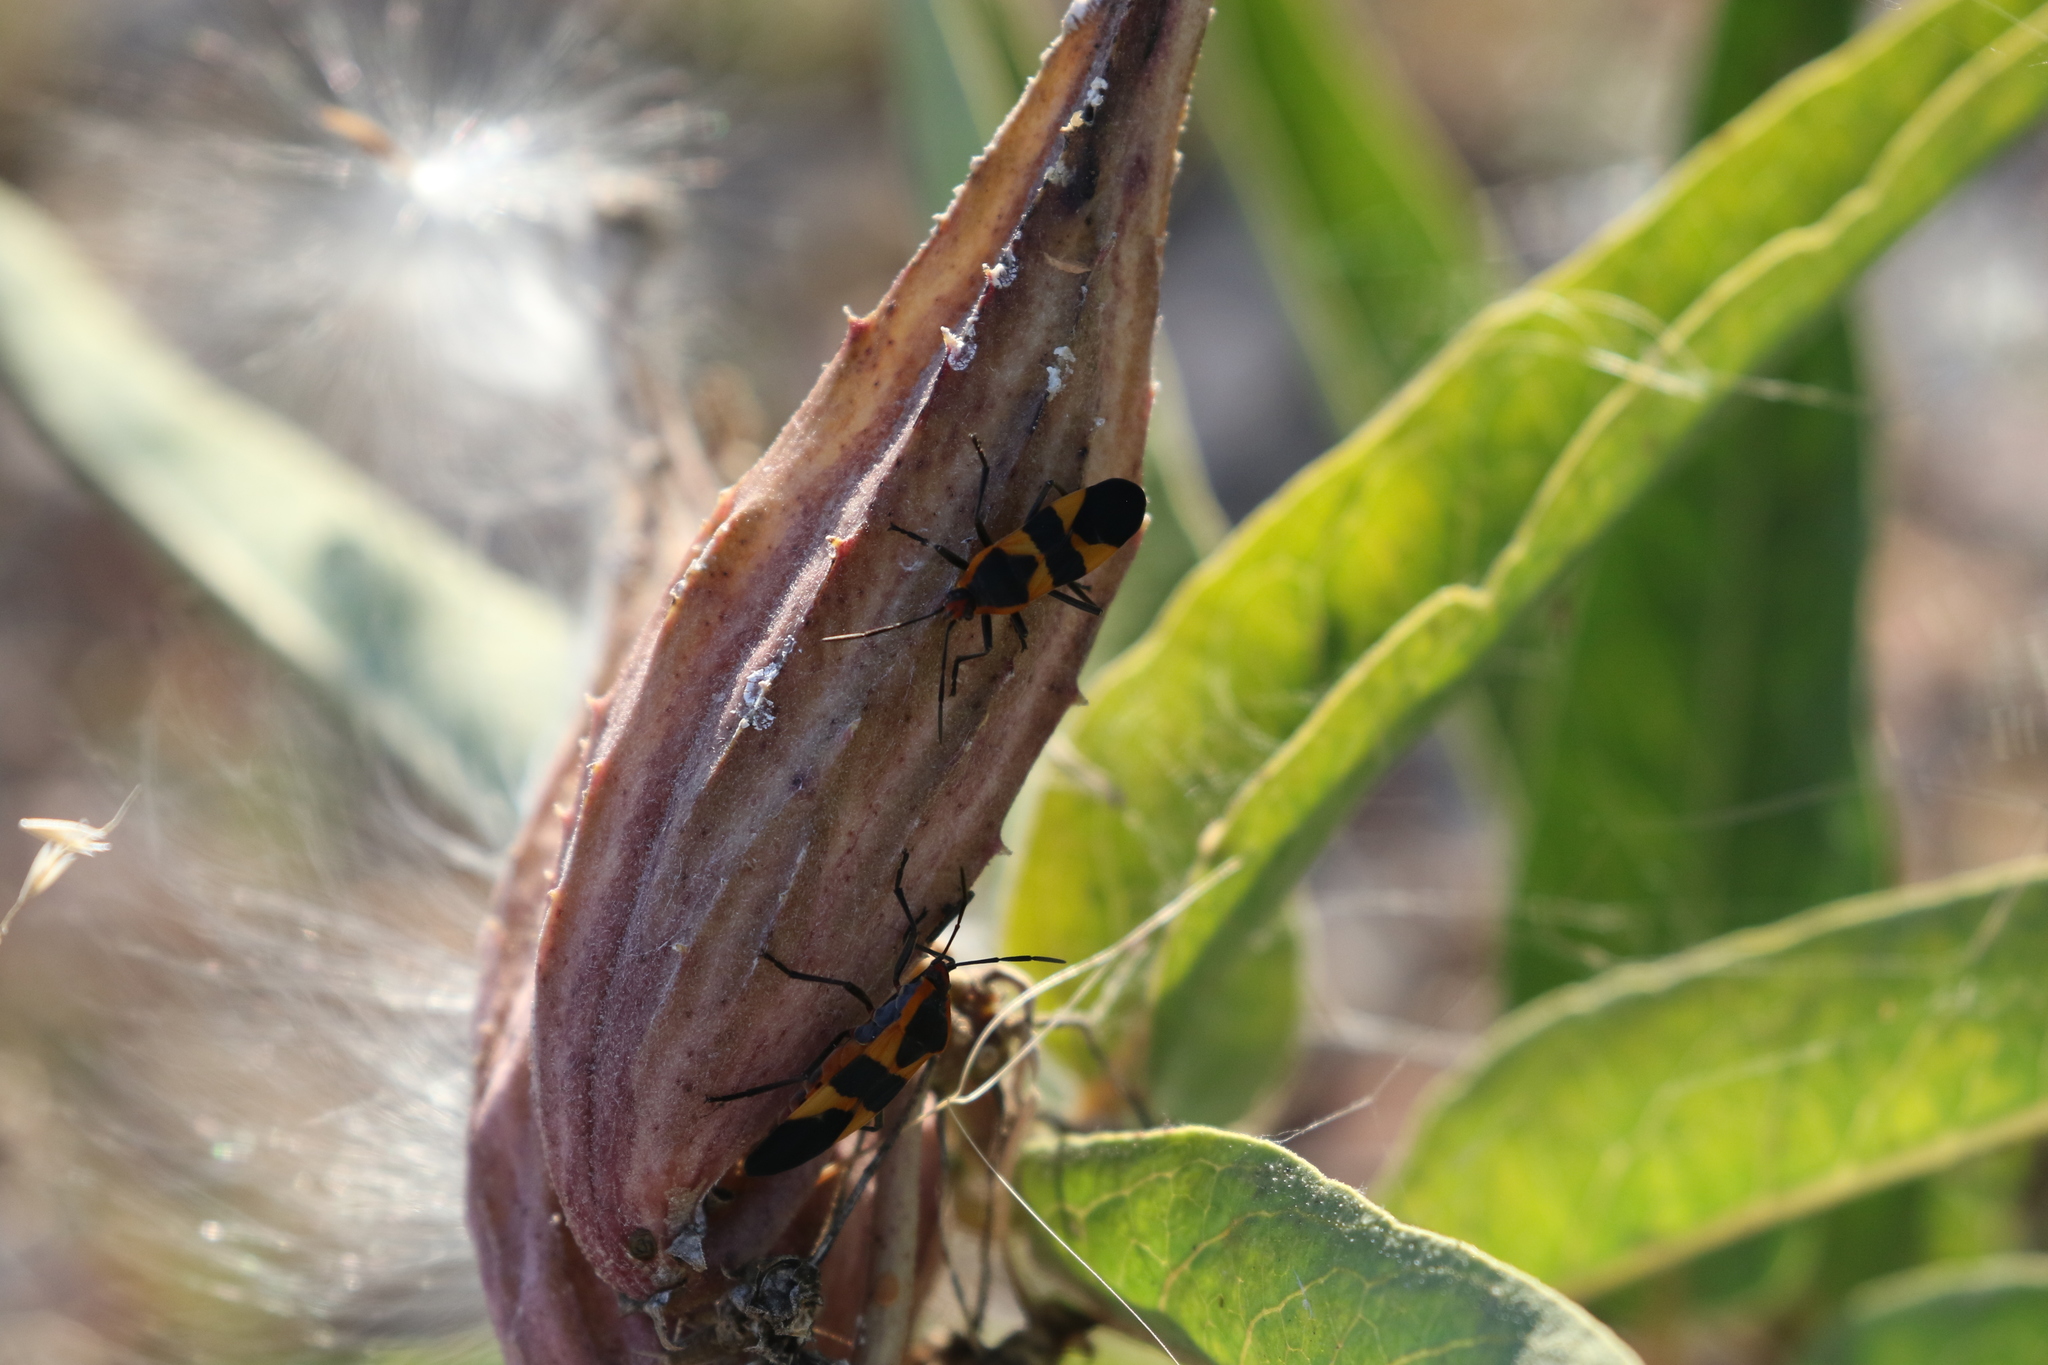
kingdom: Animalia
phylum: Arthropoda
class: Insecta
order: Hemiptera
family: Lygaeidae
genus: Oncopeltus
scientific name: Oncopeltus fasciatus
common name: Large milkweed bug
